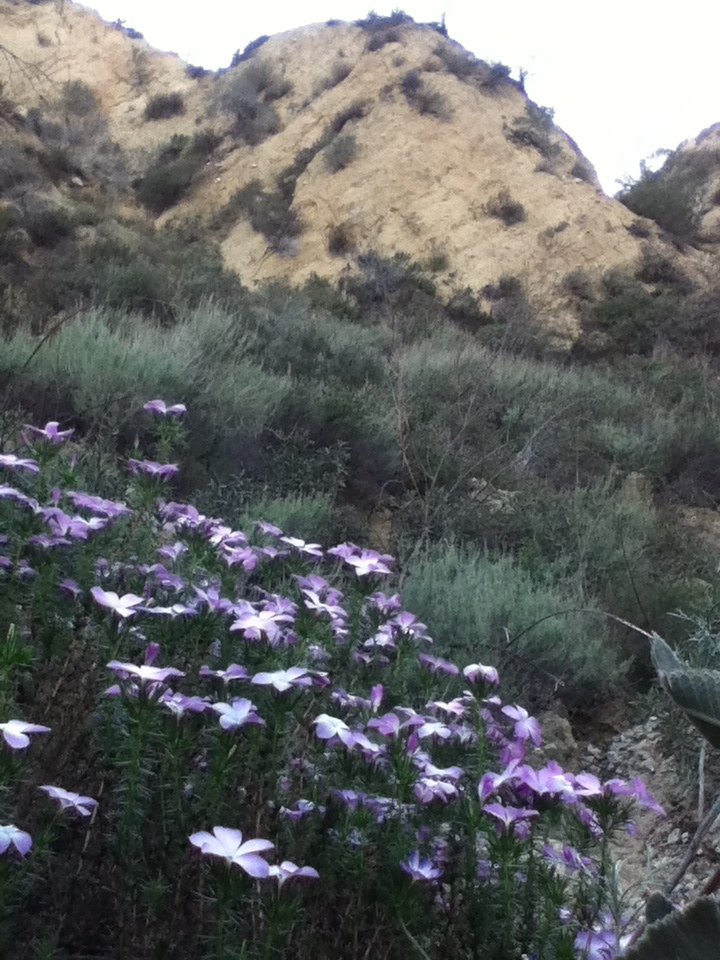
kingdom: Plantae
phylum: Tracheophyta
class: Magnoliopsida
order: Ericales
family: Polemoniaceae
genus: Linanthus
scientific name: Linanthus californicus
